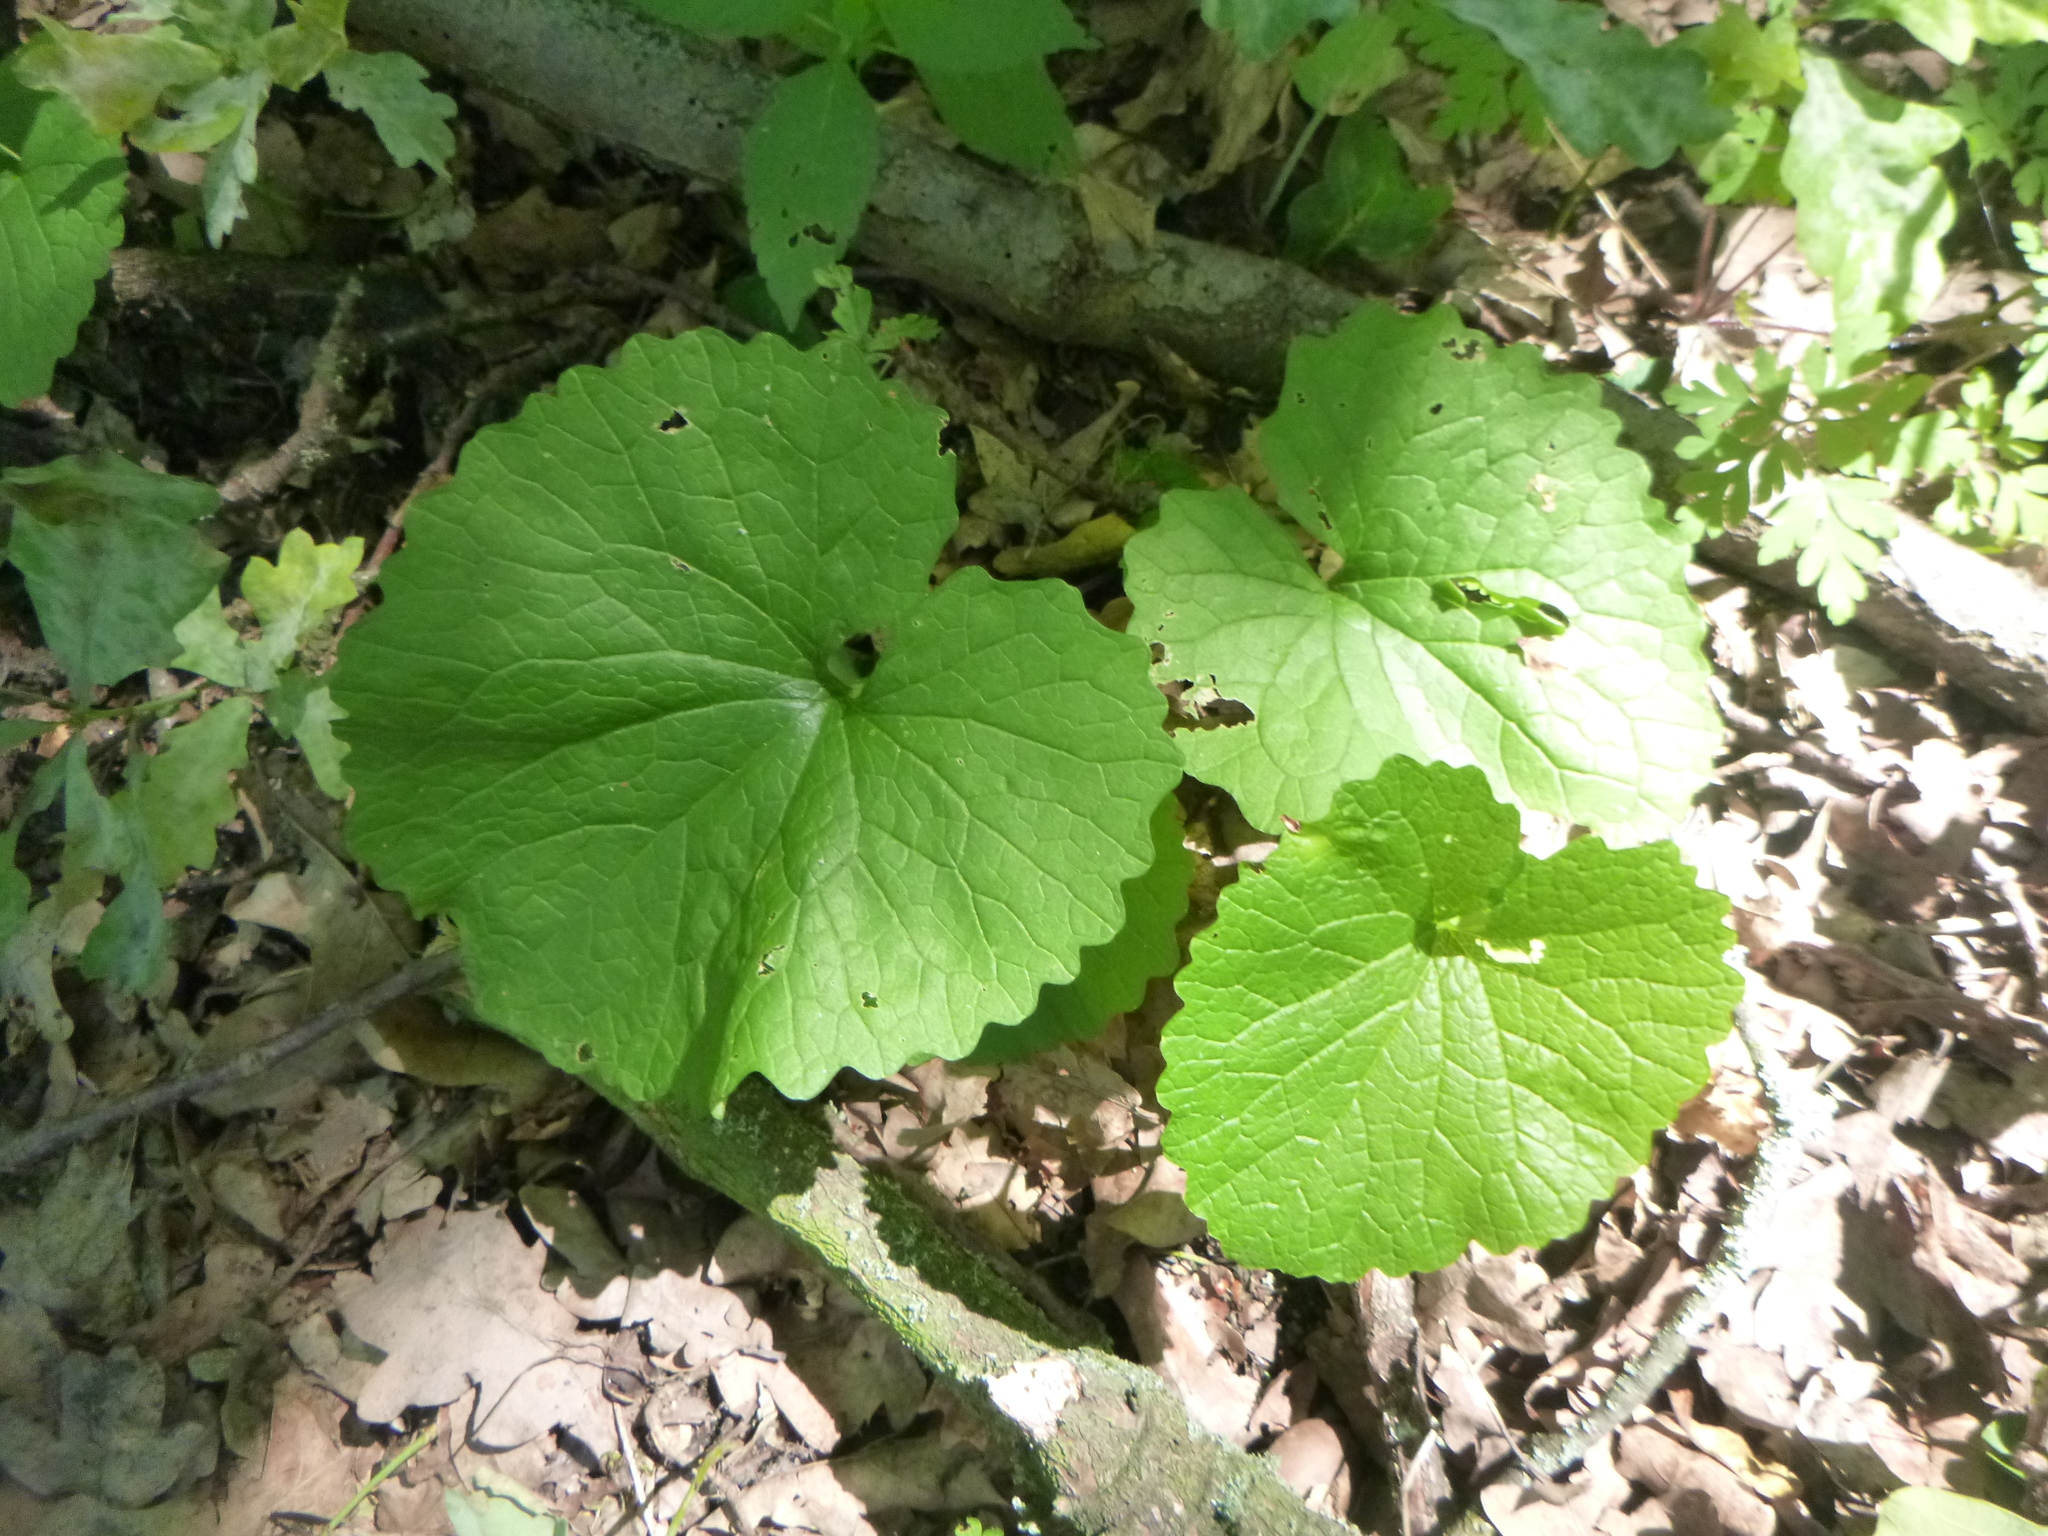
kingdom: Plantae
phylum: Tracheophyta
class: Magnoliopsida
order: Brassicales
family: Brassicaceae
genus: Alliaria
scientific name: Alliaria petiolata
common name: Garlic mustard
